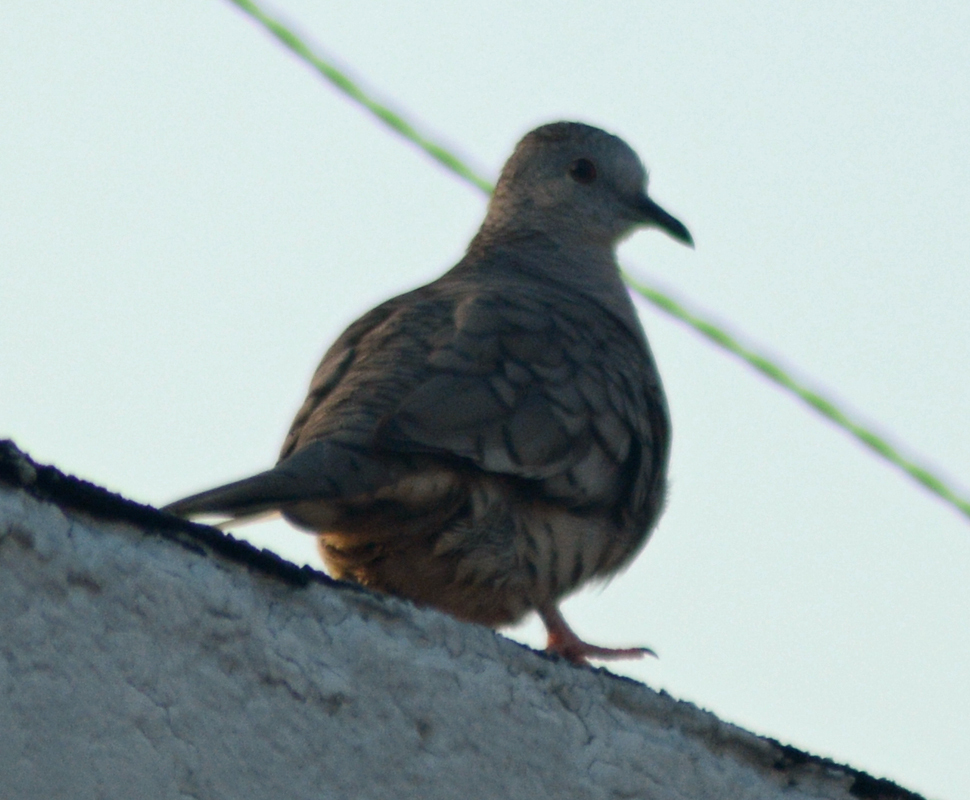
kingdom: Animalia
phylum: Chordata
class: Aves
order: Columbiformes
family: Columbidae
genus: Columbina
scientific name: Columbina inca
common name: Inca dove
